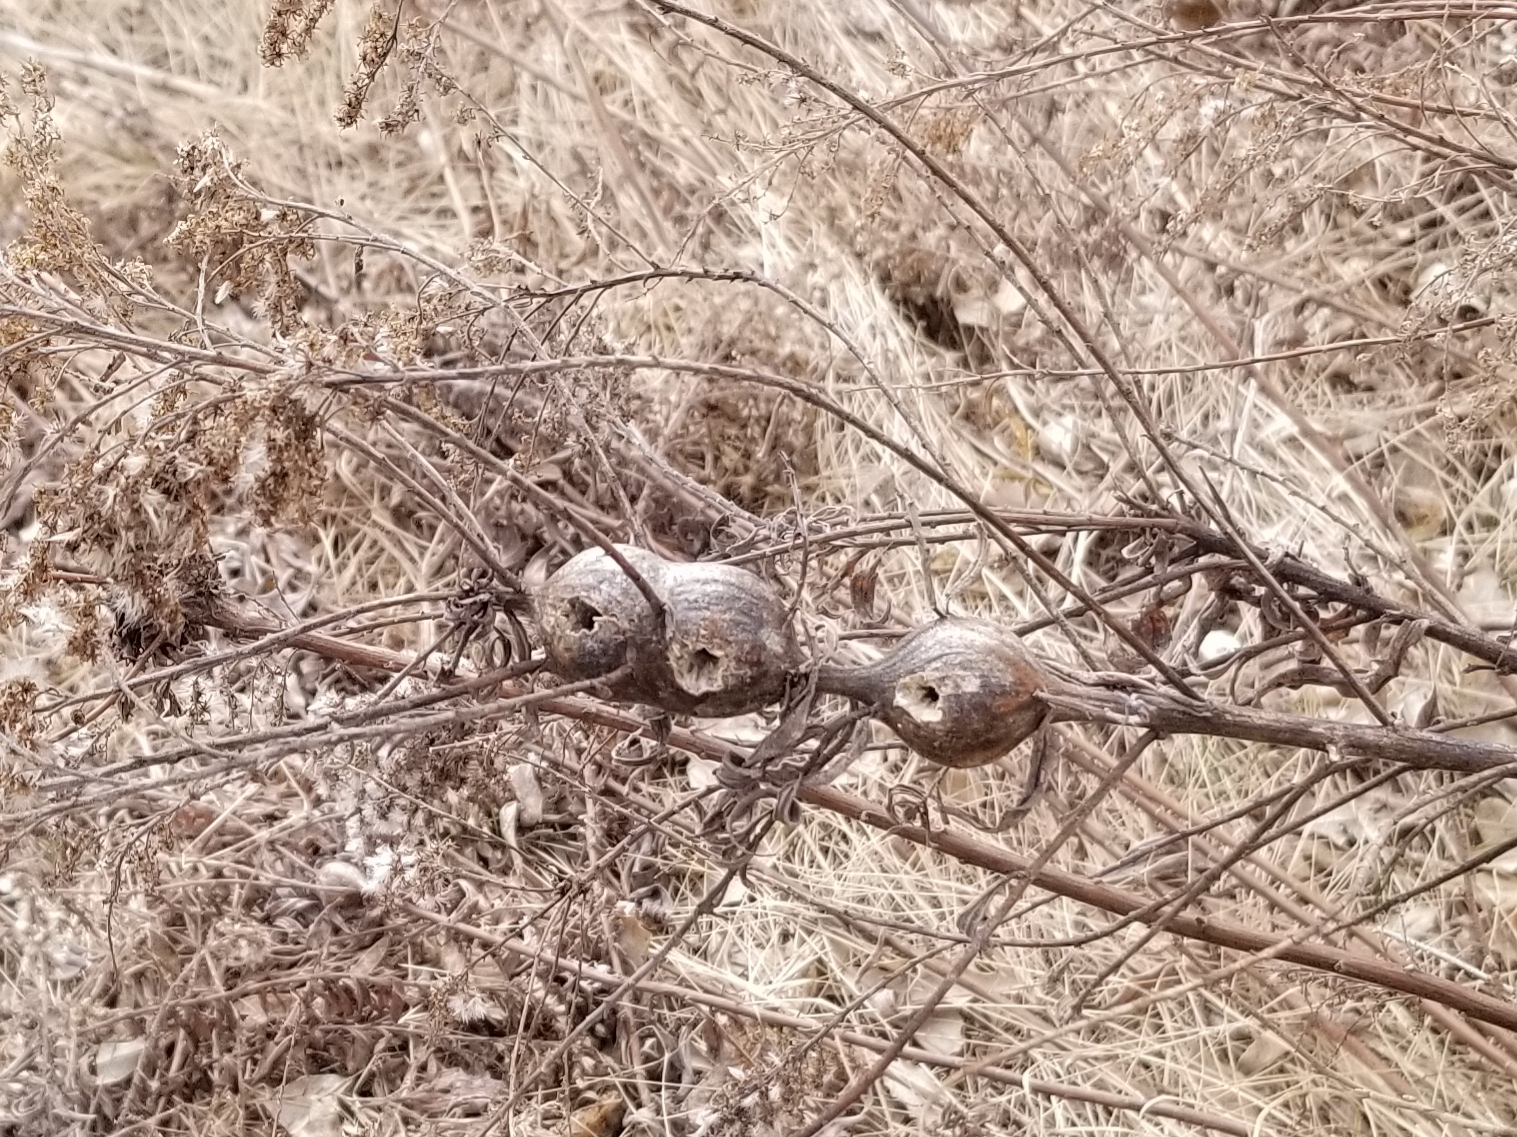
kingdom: Animalia
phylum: Arthropoda
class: Insecta
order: Diptera
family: Tephritidae
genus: Eurosta
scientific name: Eurosta solidaginis
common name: Goldenrod gall fly
